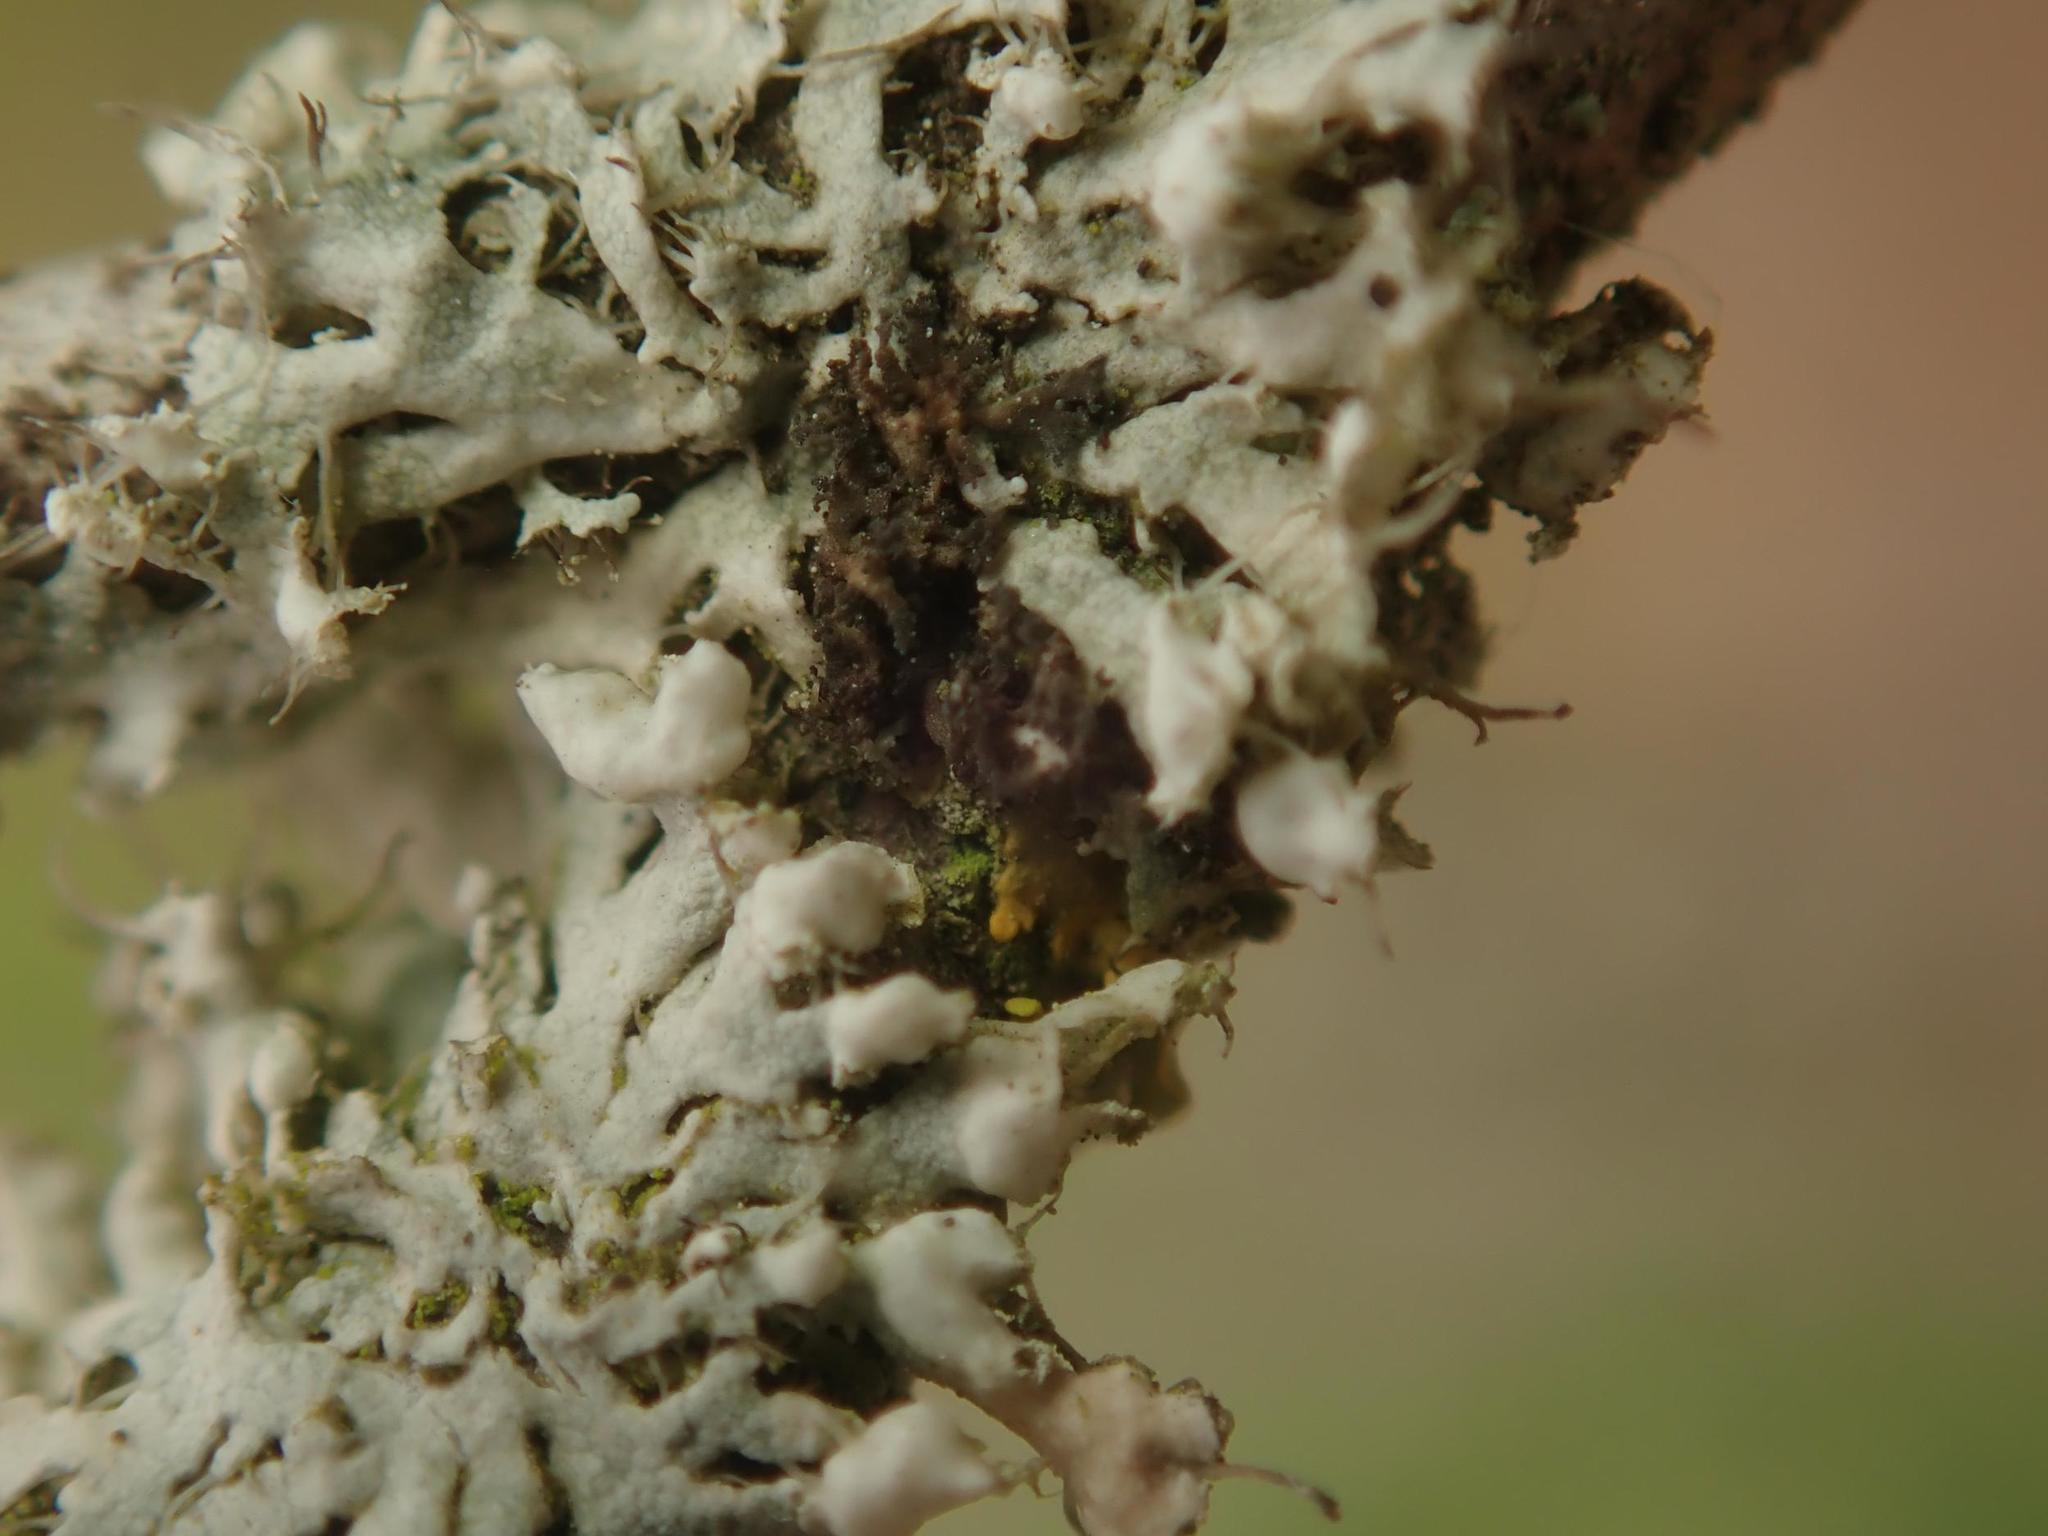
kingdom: Fungi
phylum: Ascomycota
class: Lecanoromycetes
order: Caliciales
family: Physciaceae
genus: Physciella
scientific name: Physciella nigricans
